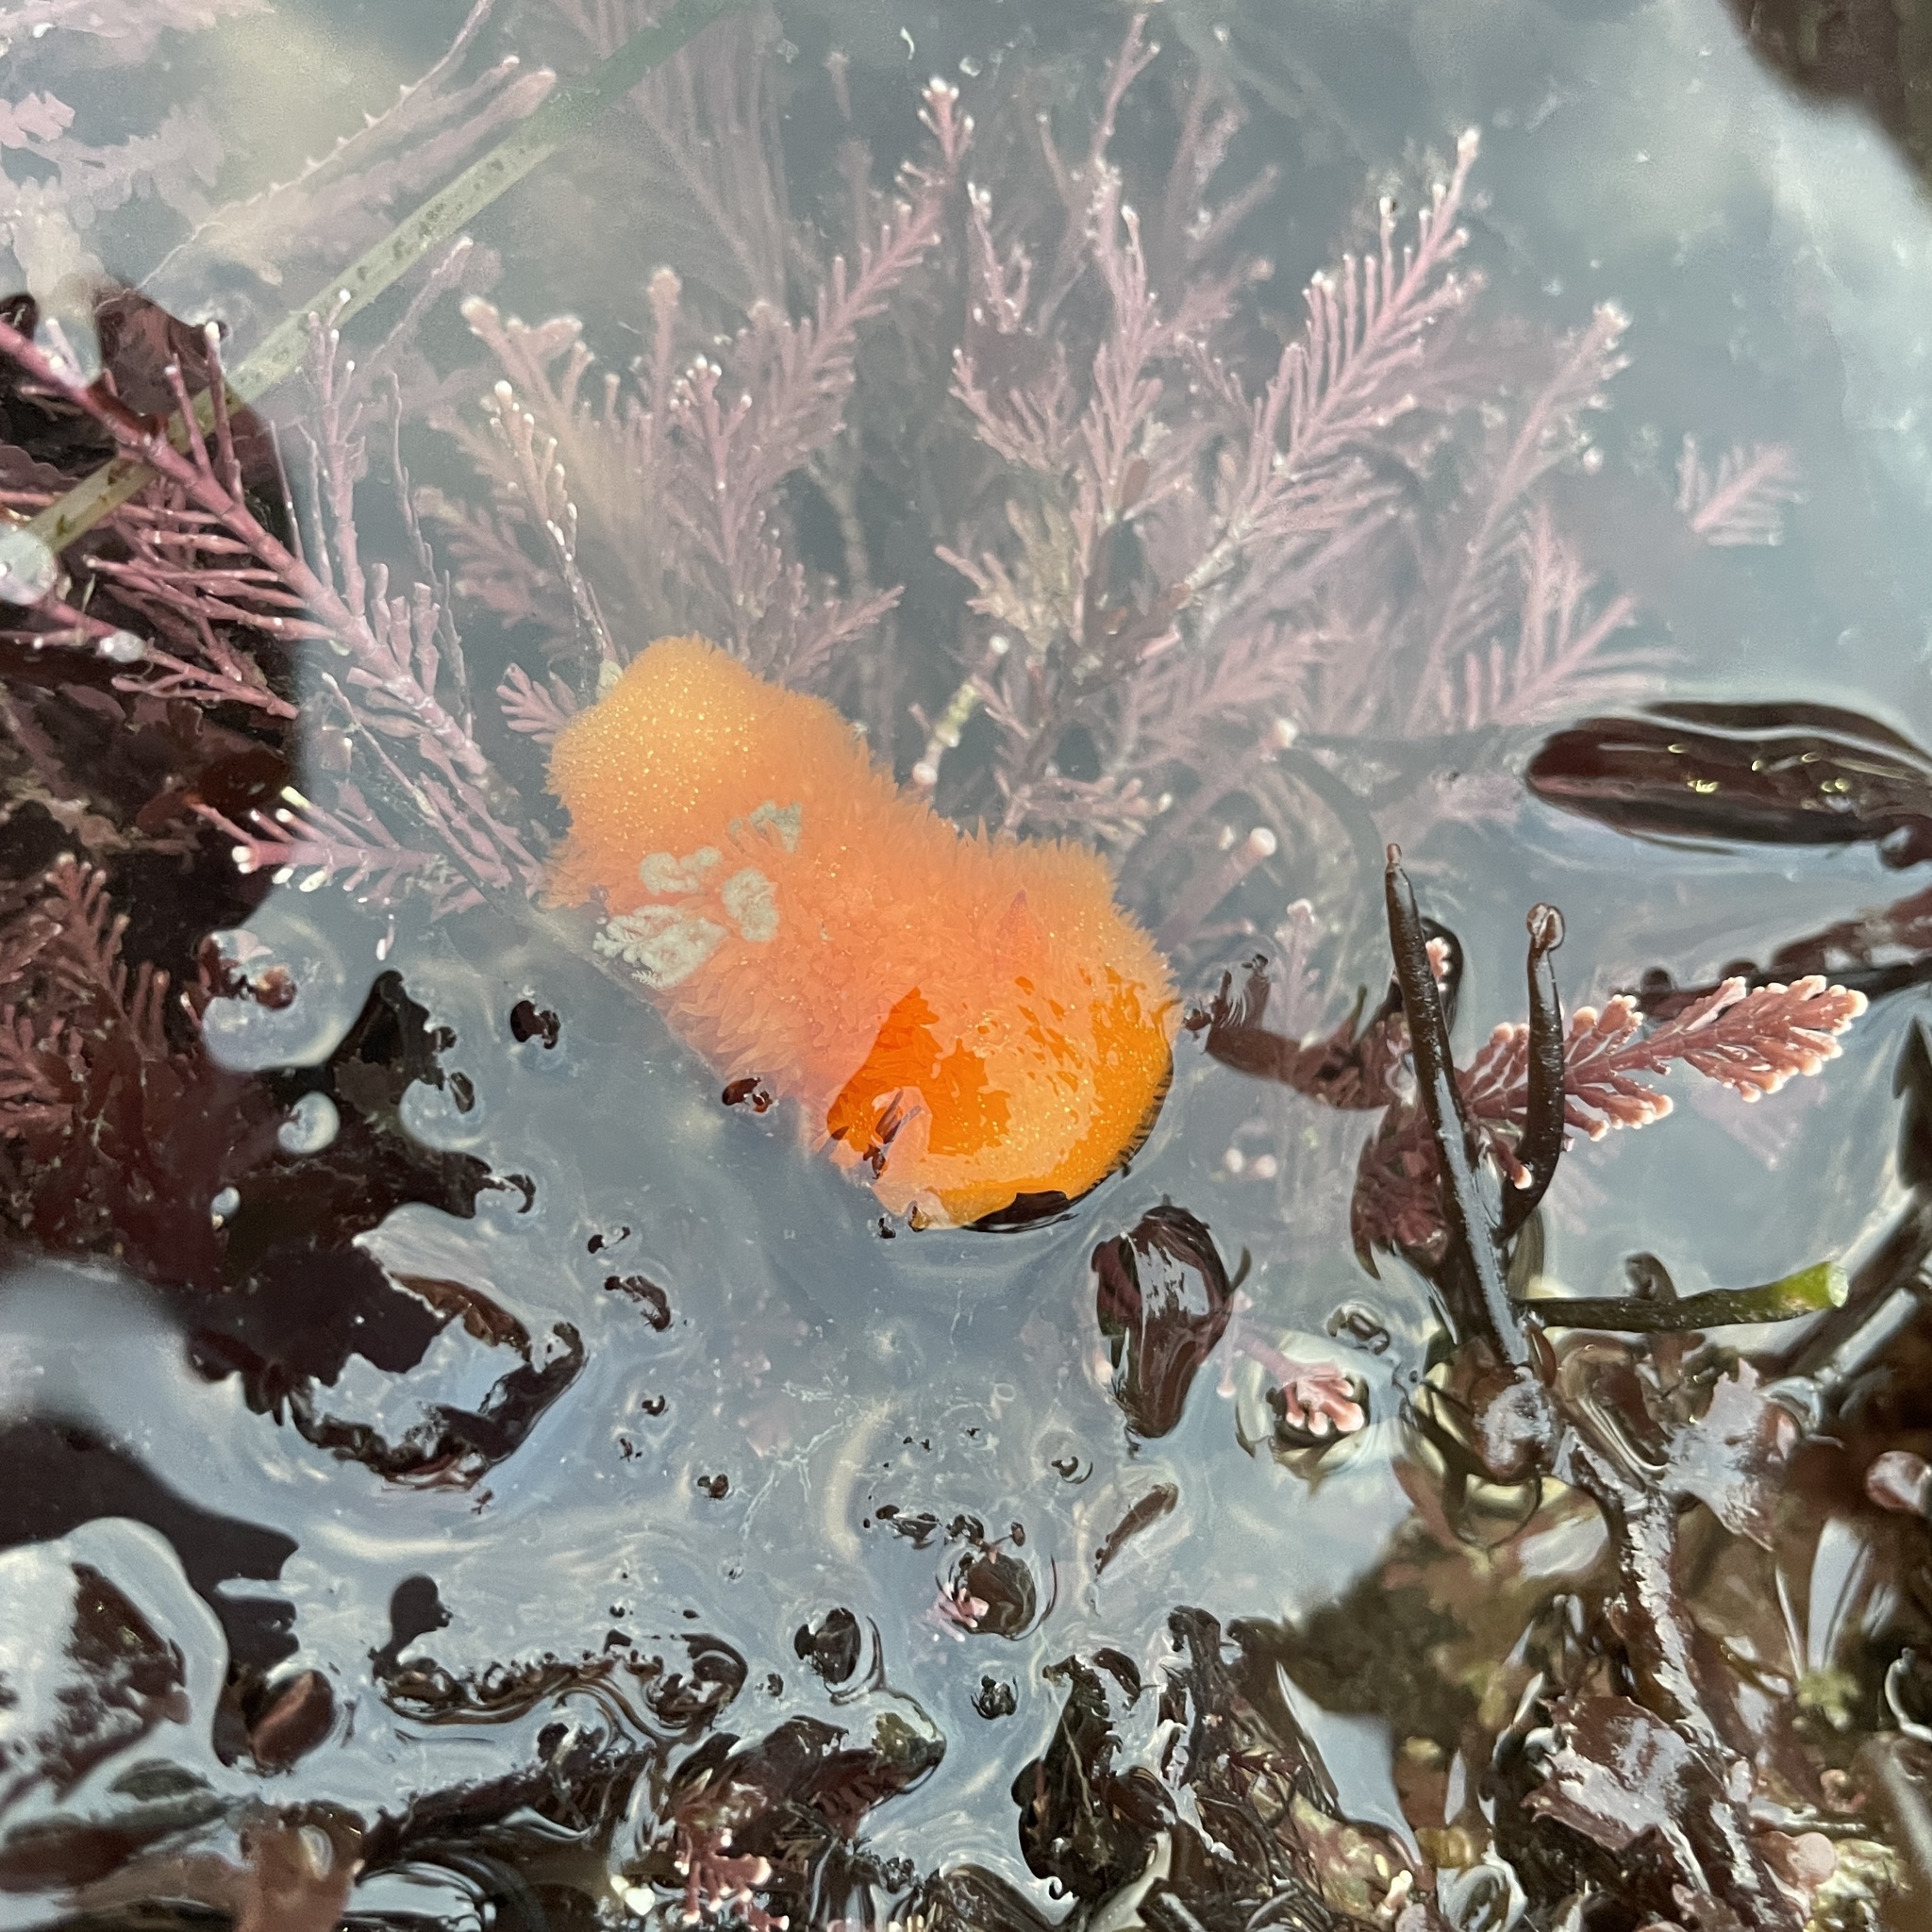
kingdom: Animalia
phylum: Mollusca
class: Gastropoda
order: Nudibranchia
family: Onchidorididae
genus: Acanthodoris
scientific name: Acanthodoris lutea
